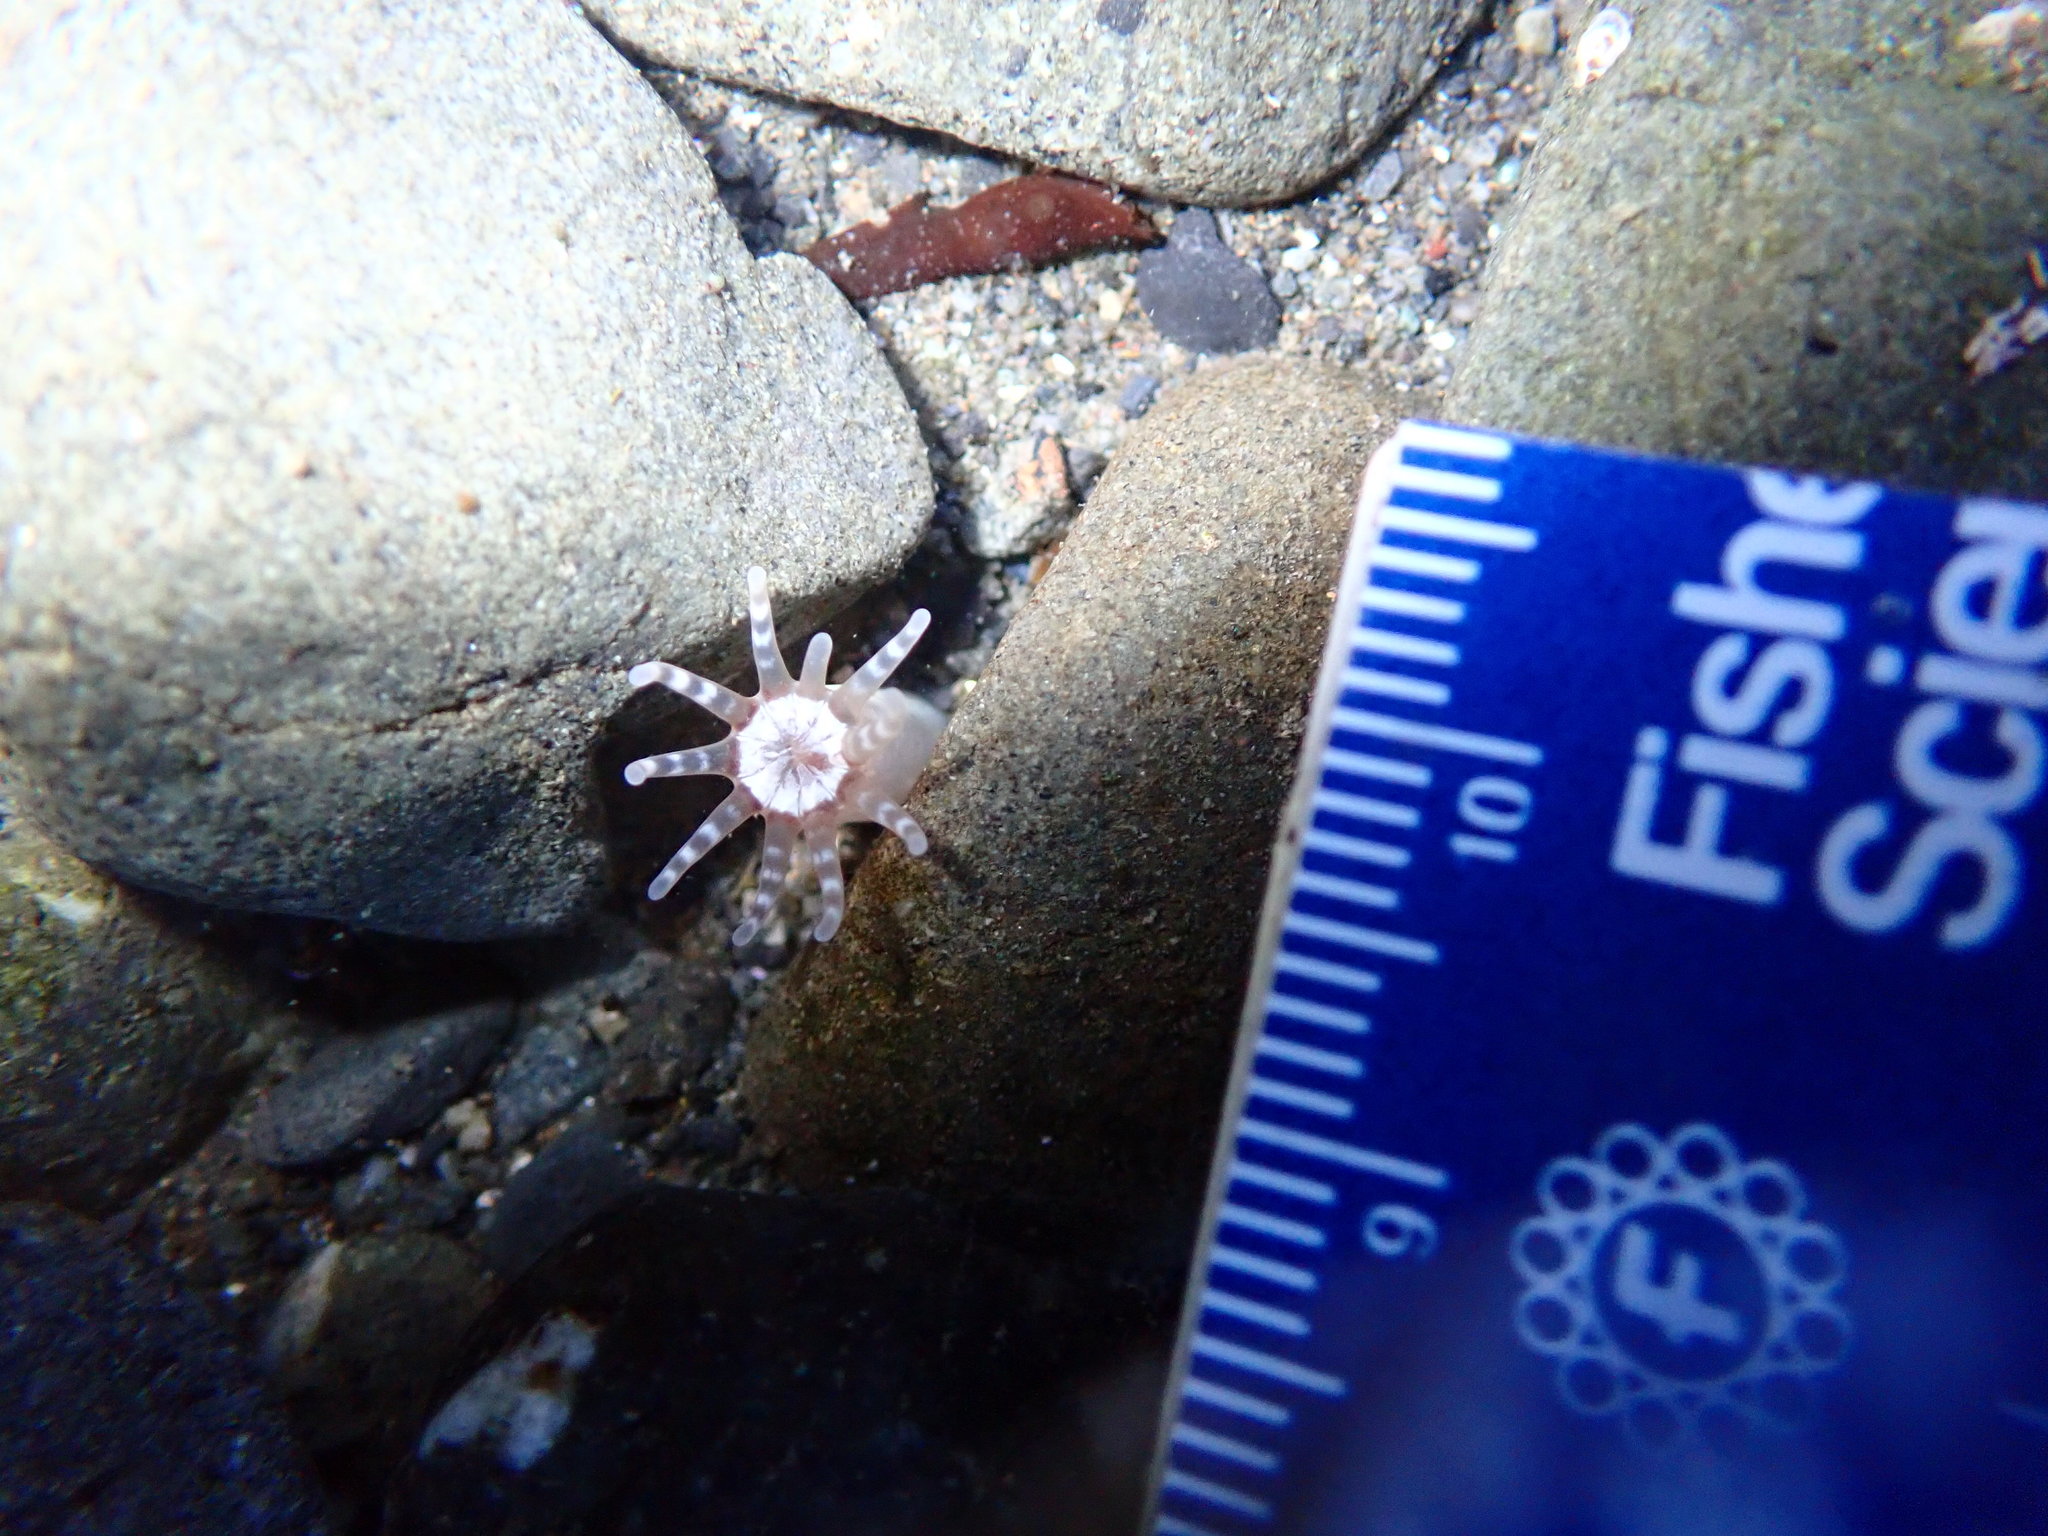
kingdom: Animalia
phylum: Cnidaria
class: Anthozoa
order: Actiniaria
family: Halcampidae
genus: Halcampa
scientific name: Halcampa decemtentaculata
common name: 10-tentacle burrowing anemone
